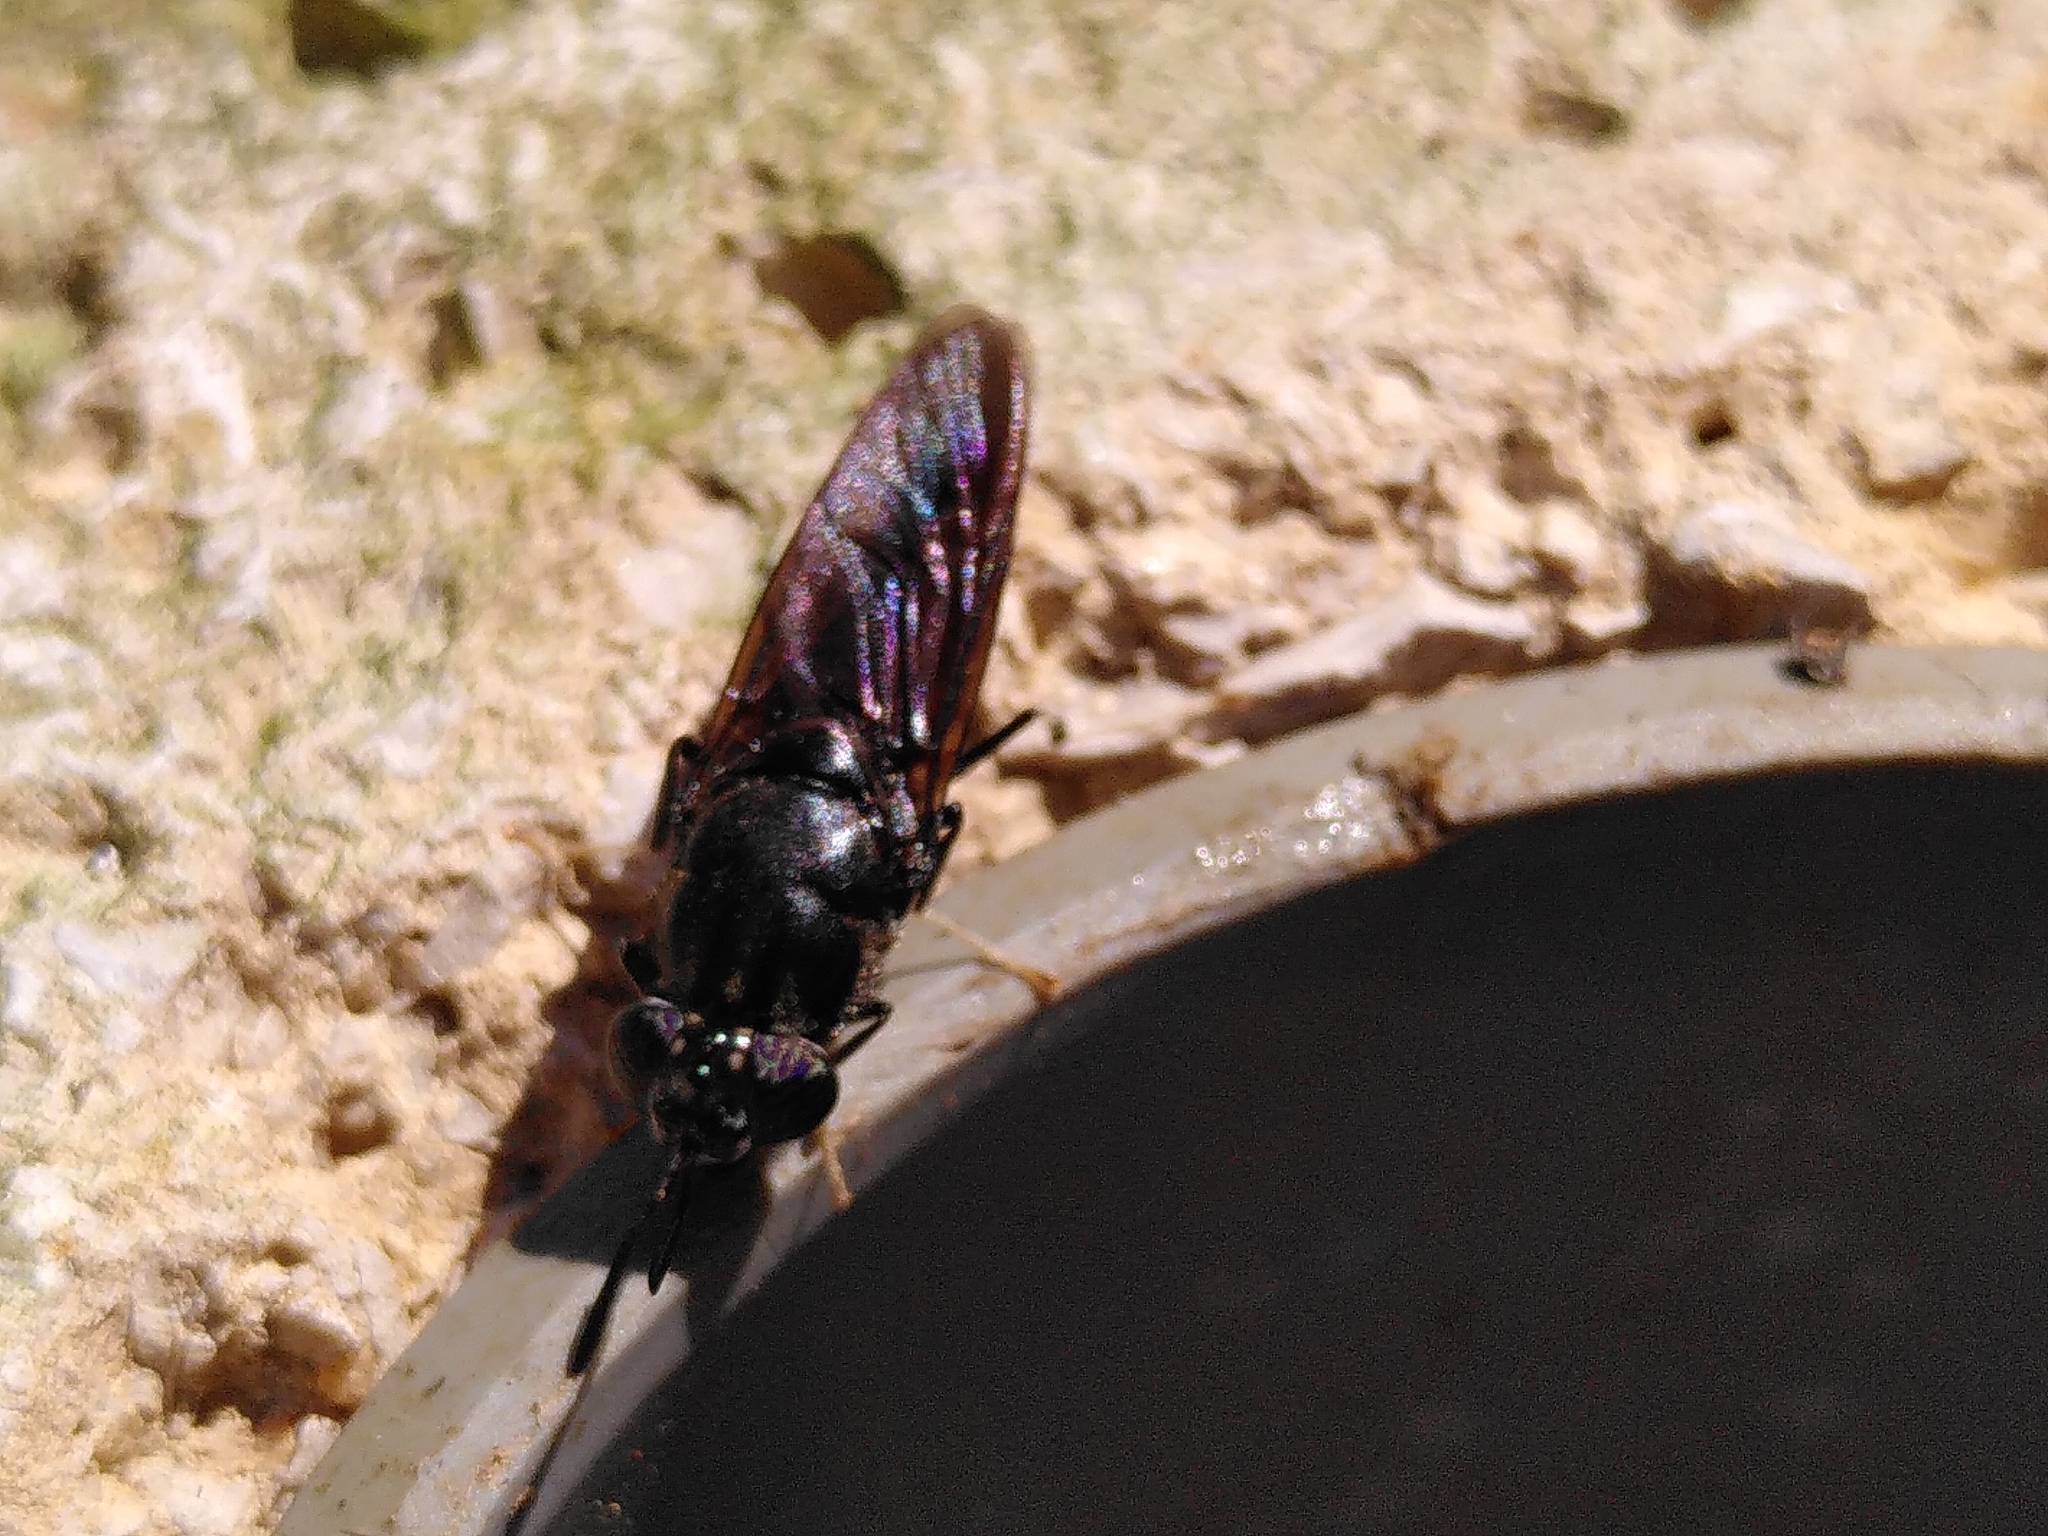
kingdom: Animalia
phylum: Arthropoda
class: Insecta
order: Diptera
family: Stratiomyidae
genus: Hermetia
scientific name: Hermetia illucens
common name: Black soldier fly
